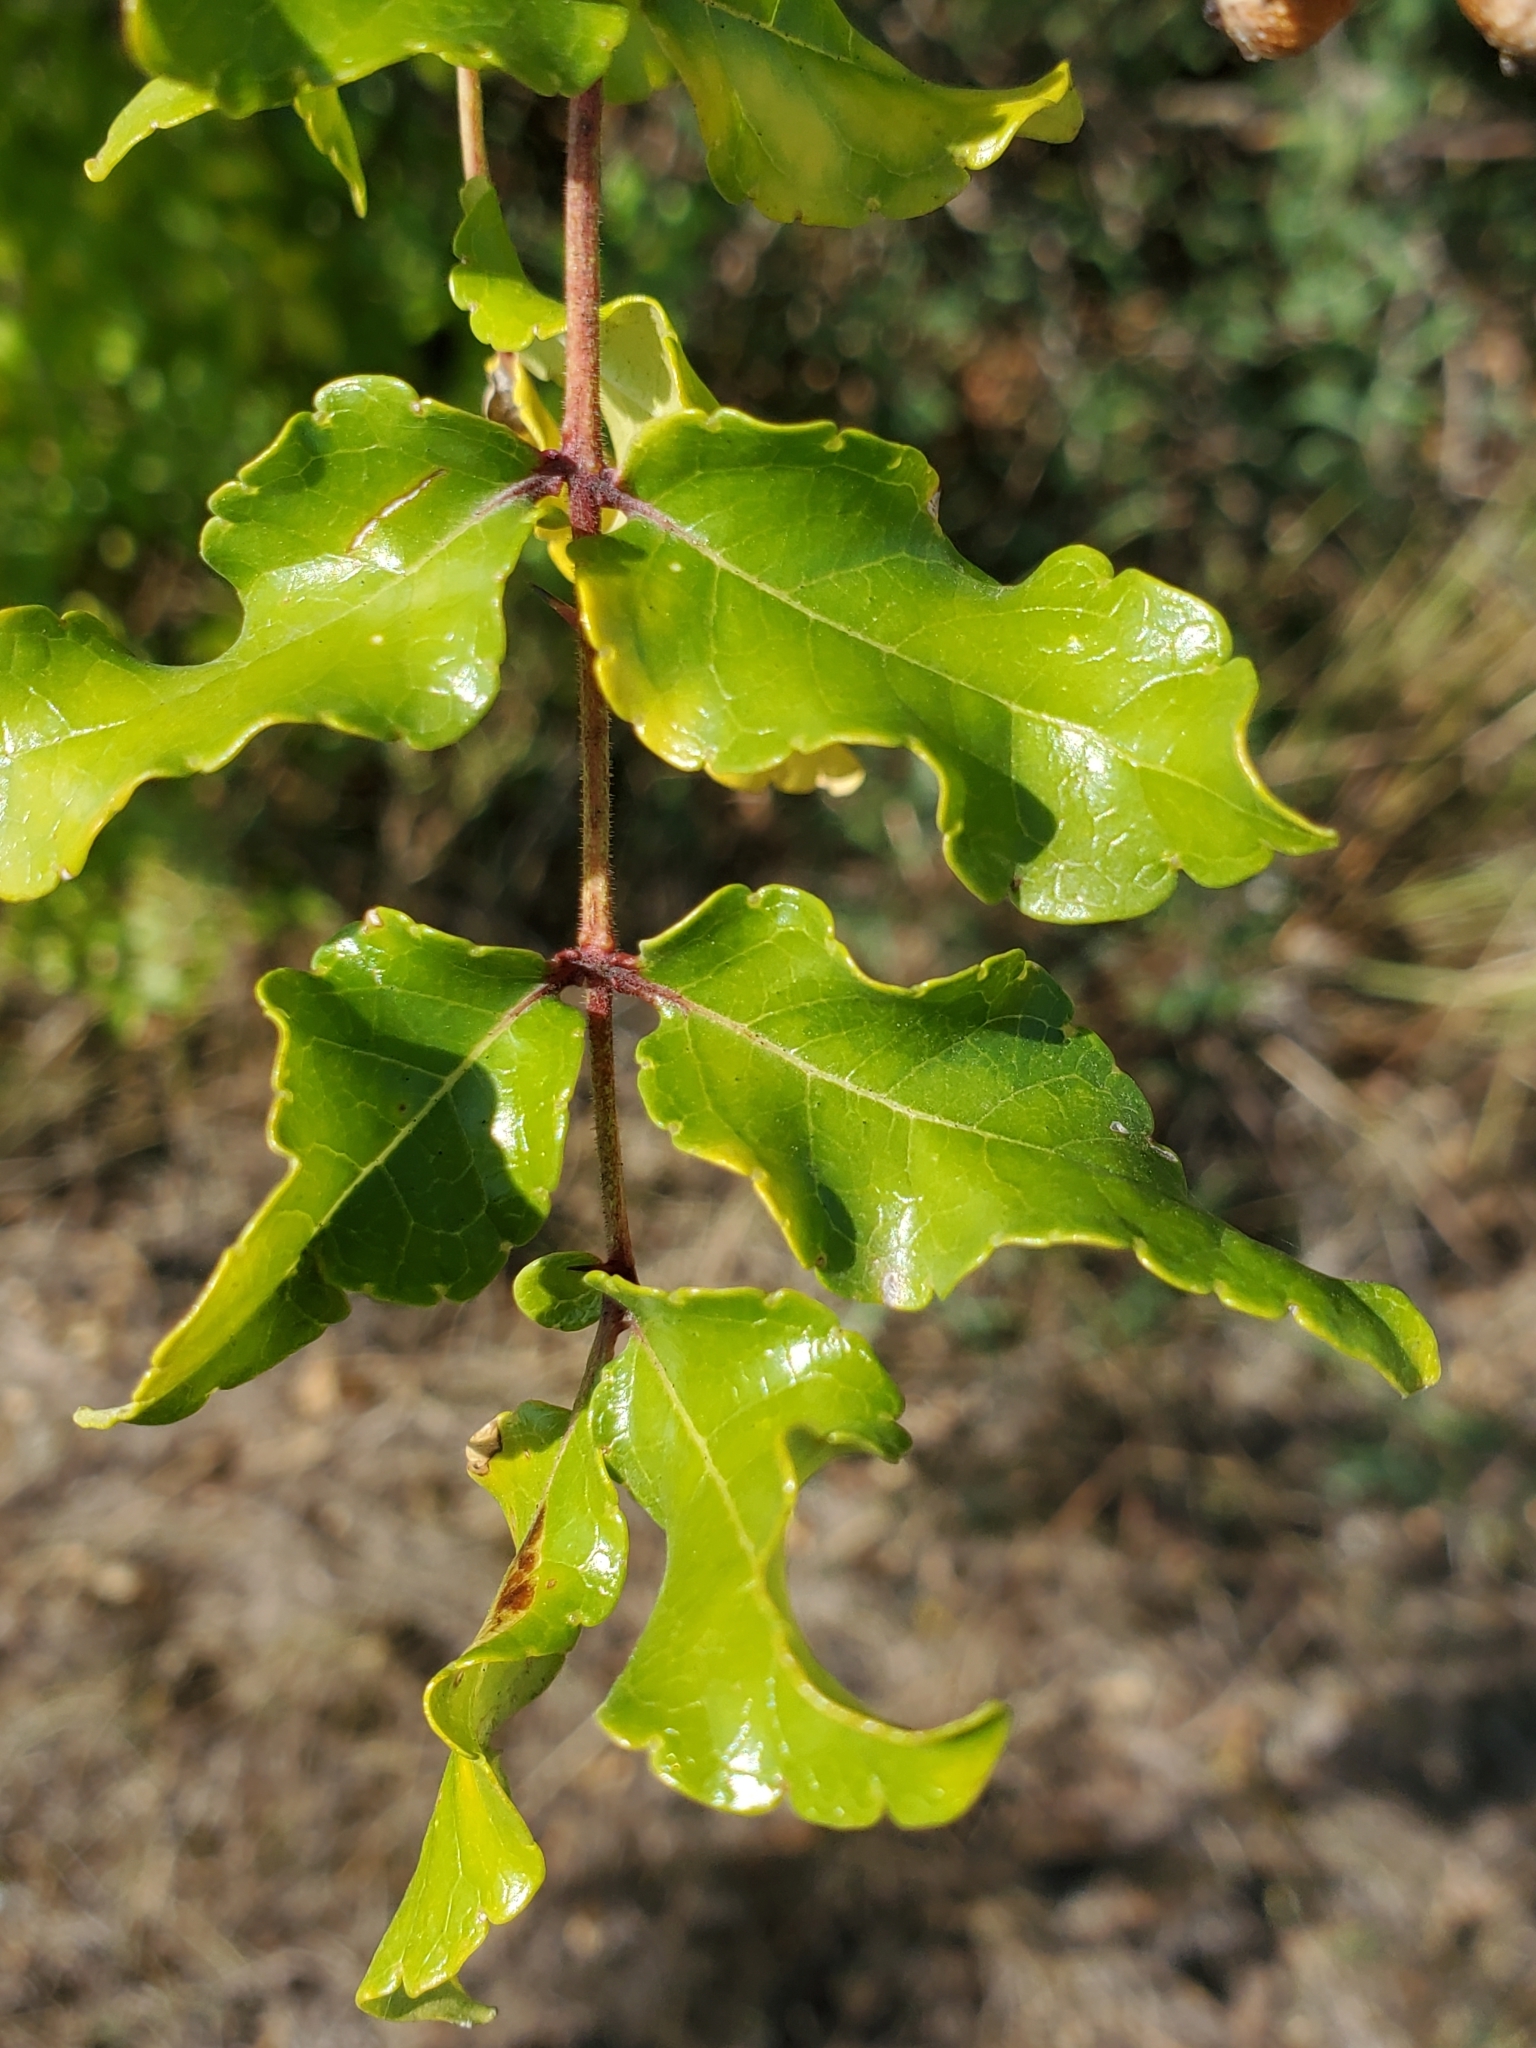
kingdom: Plantae
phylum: Tracheophyta
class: Magnoliopsida
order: Sapindales
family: Rutaceae
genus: Zanthoxylum
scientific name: Zanthoxylum clava-herculis
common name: Hercules'-club
